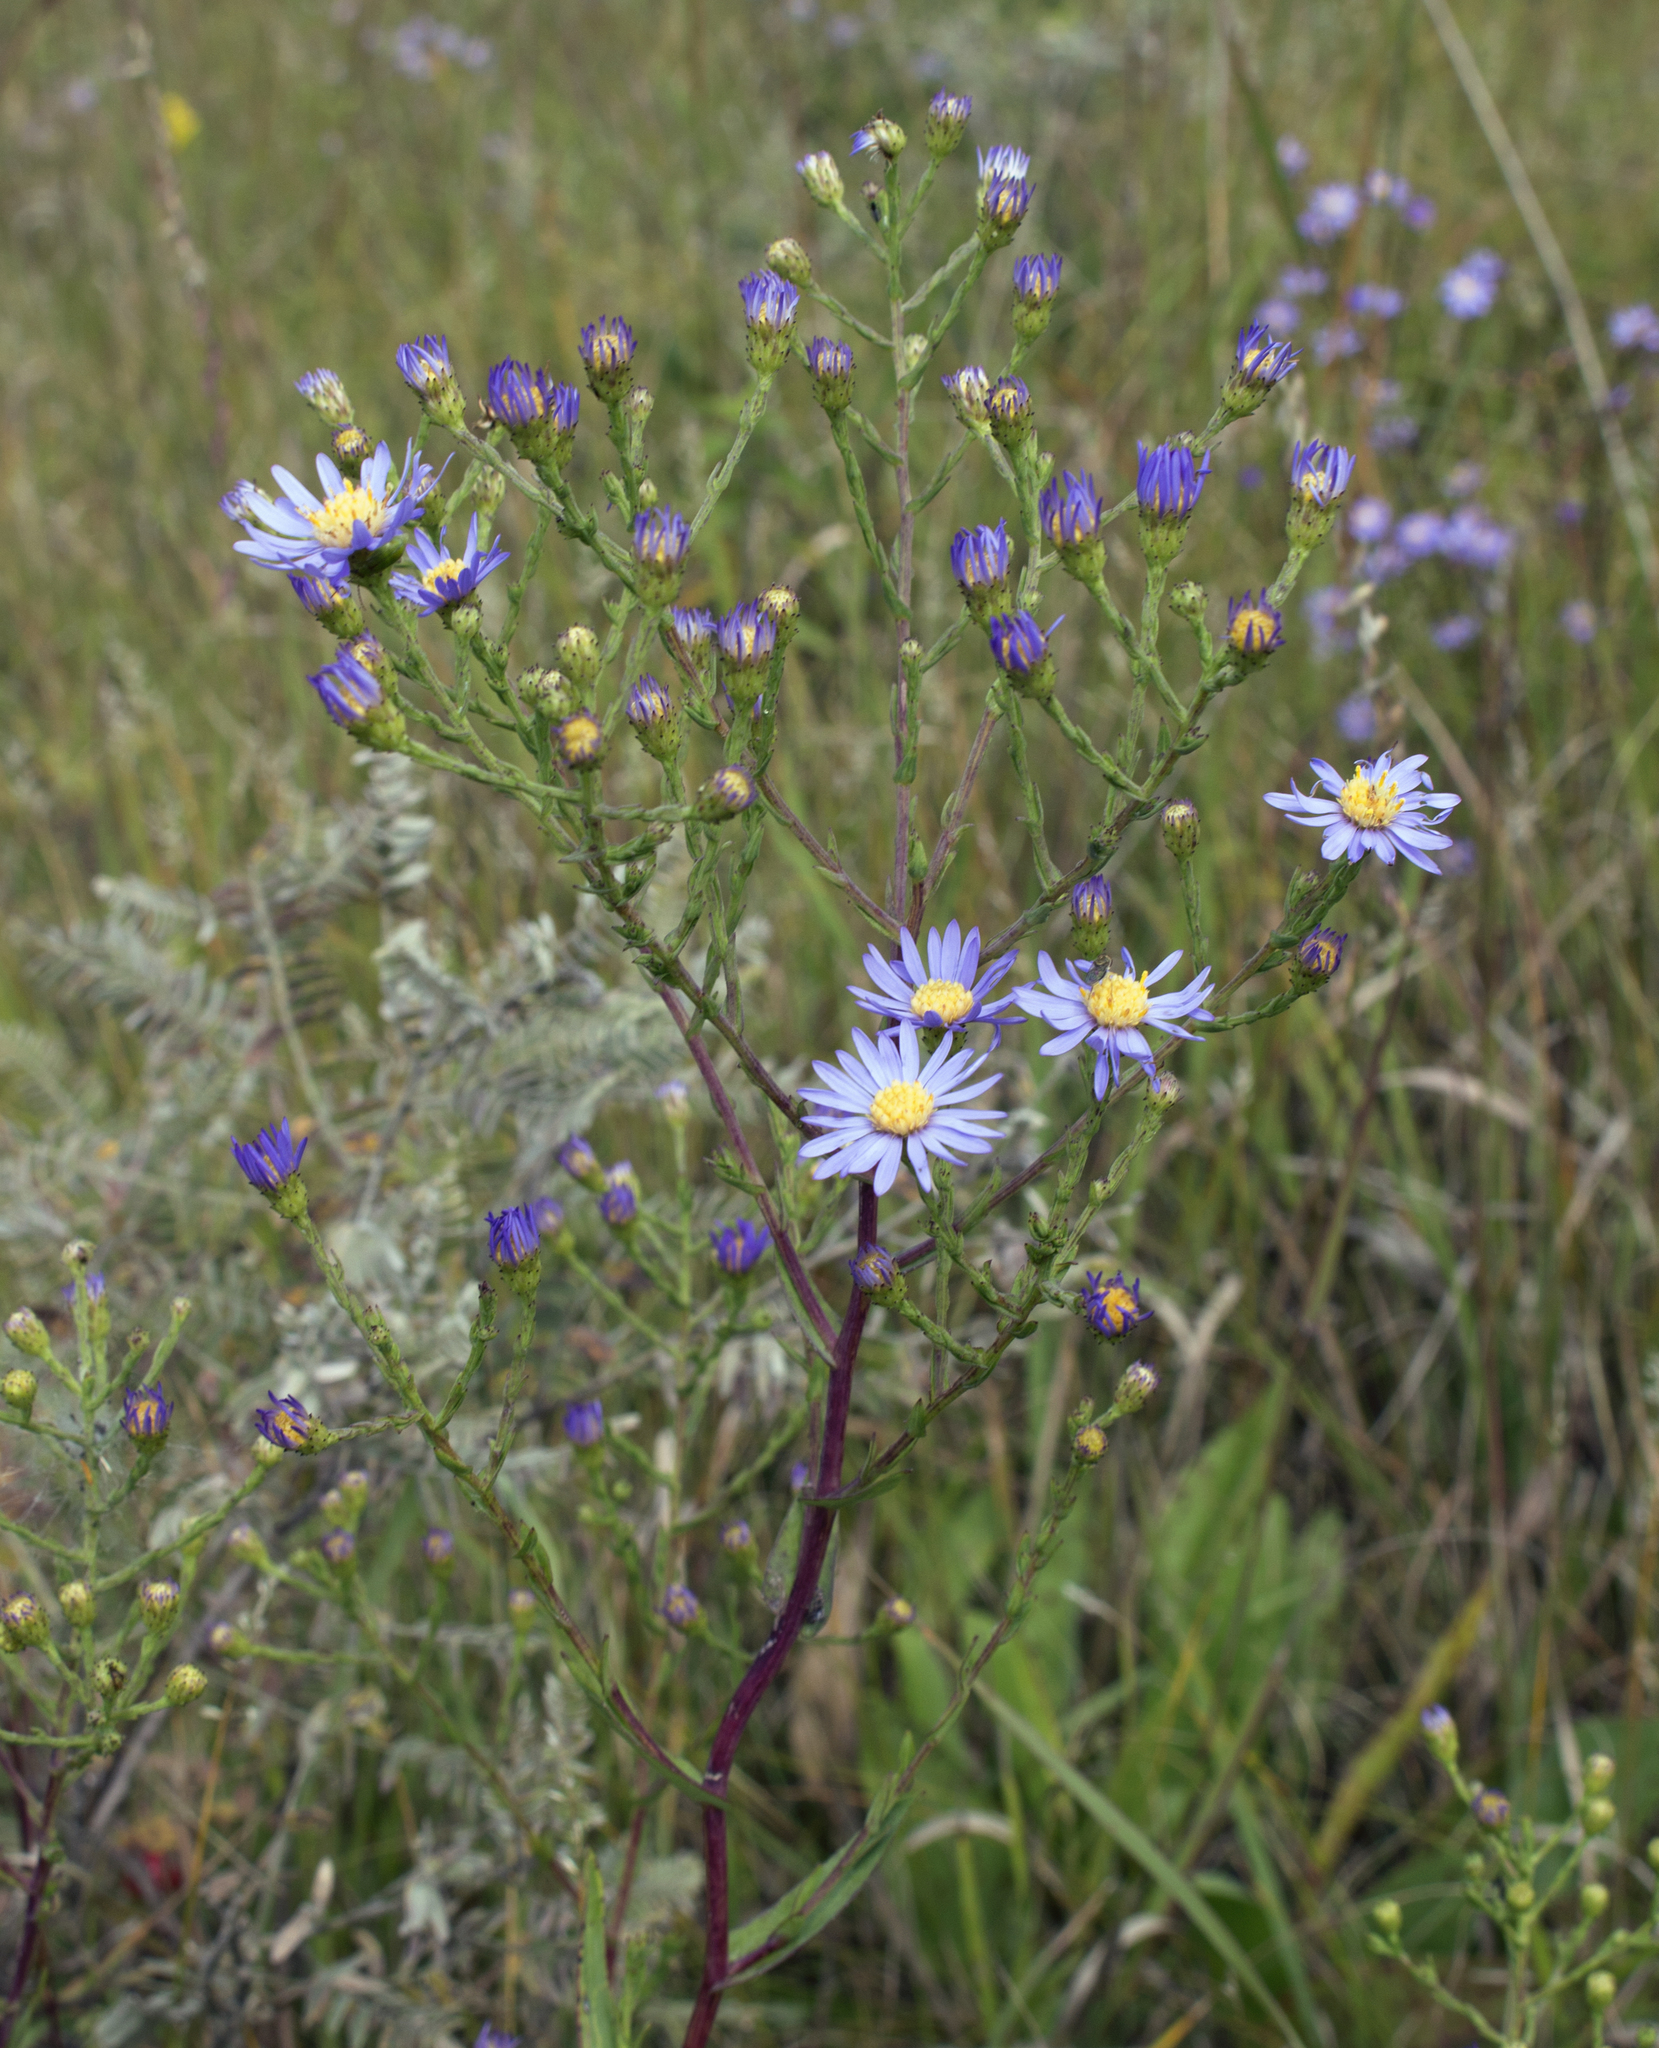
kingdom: Plantae
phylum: Tracheophyta
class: Magnoliopsida
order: Asterales
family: Asteraceae
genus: Symphyotrichum
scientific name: Symphyotrichum laeve
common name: Glaucous aster
